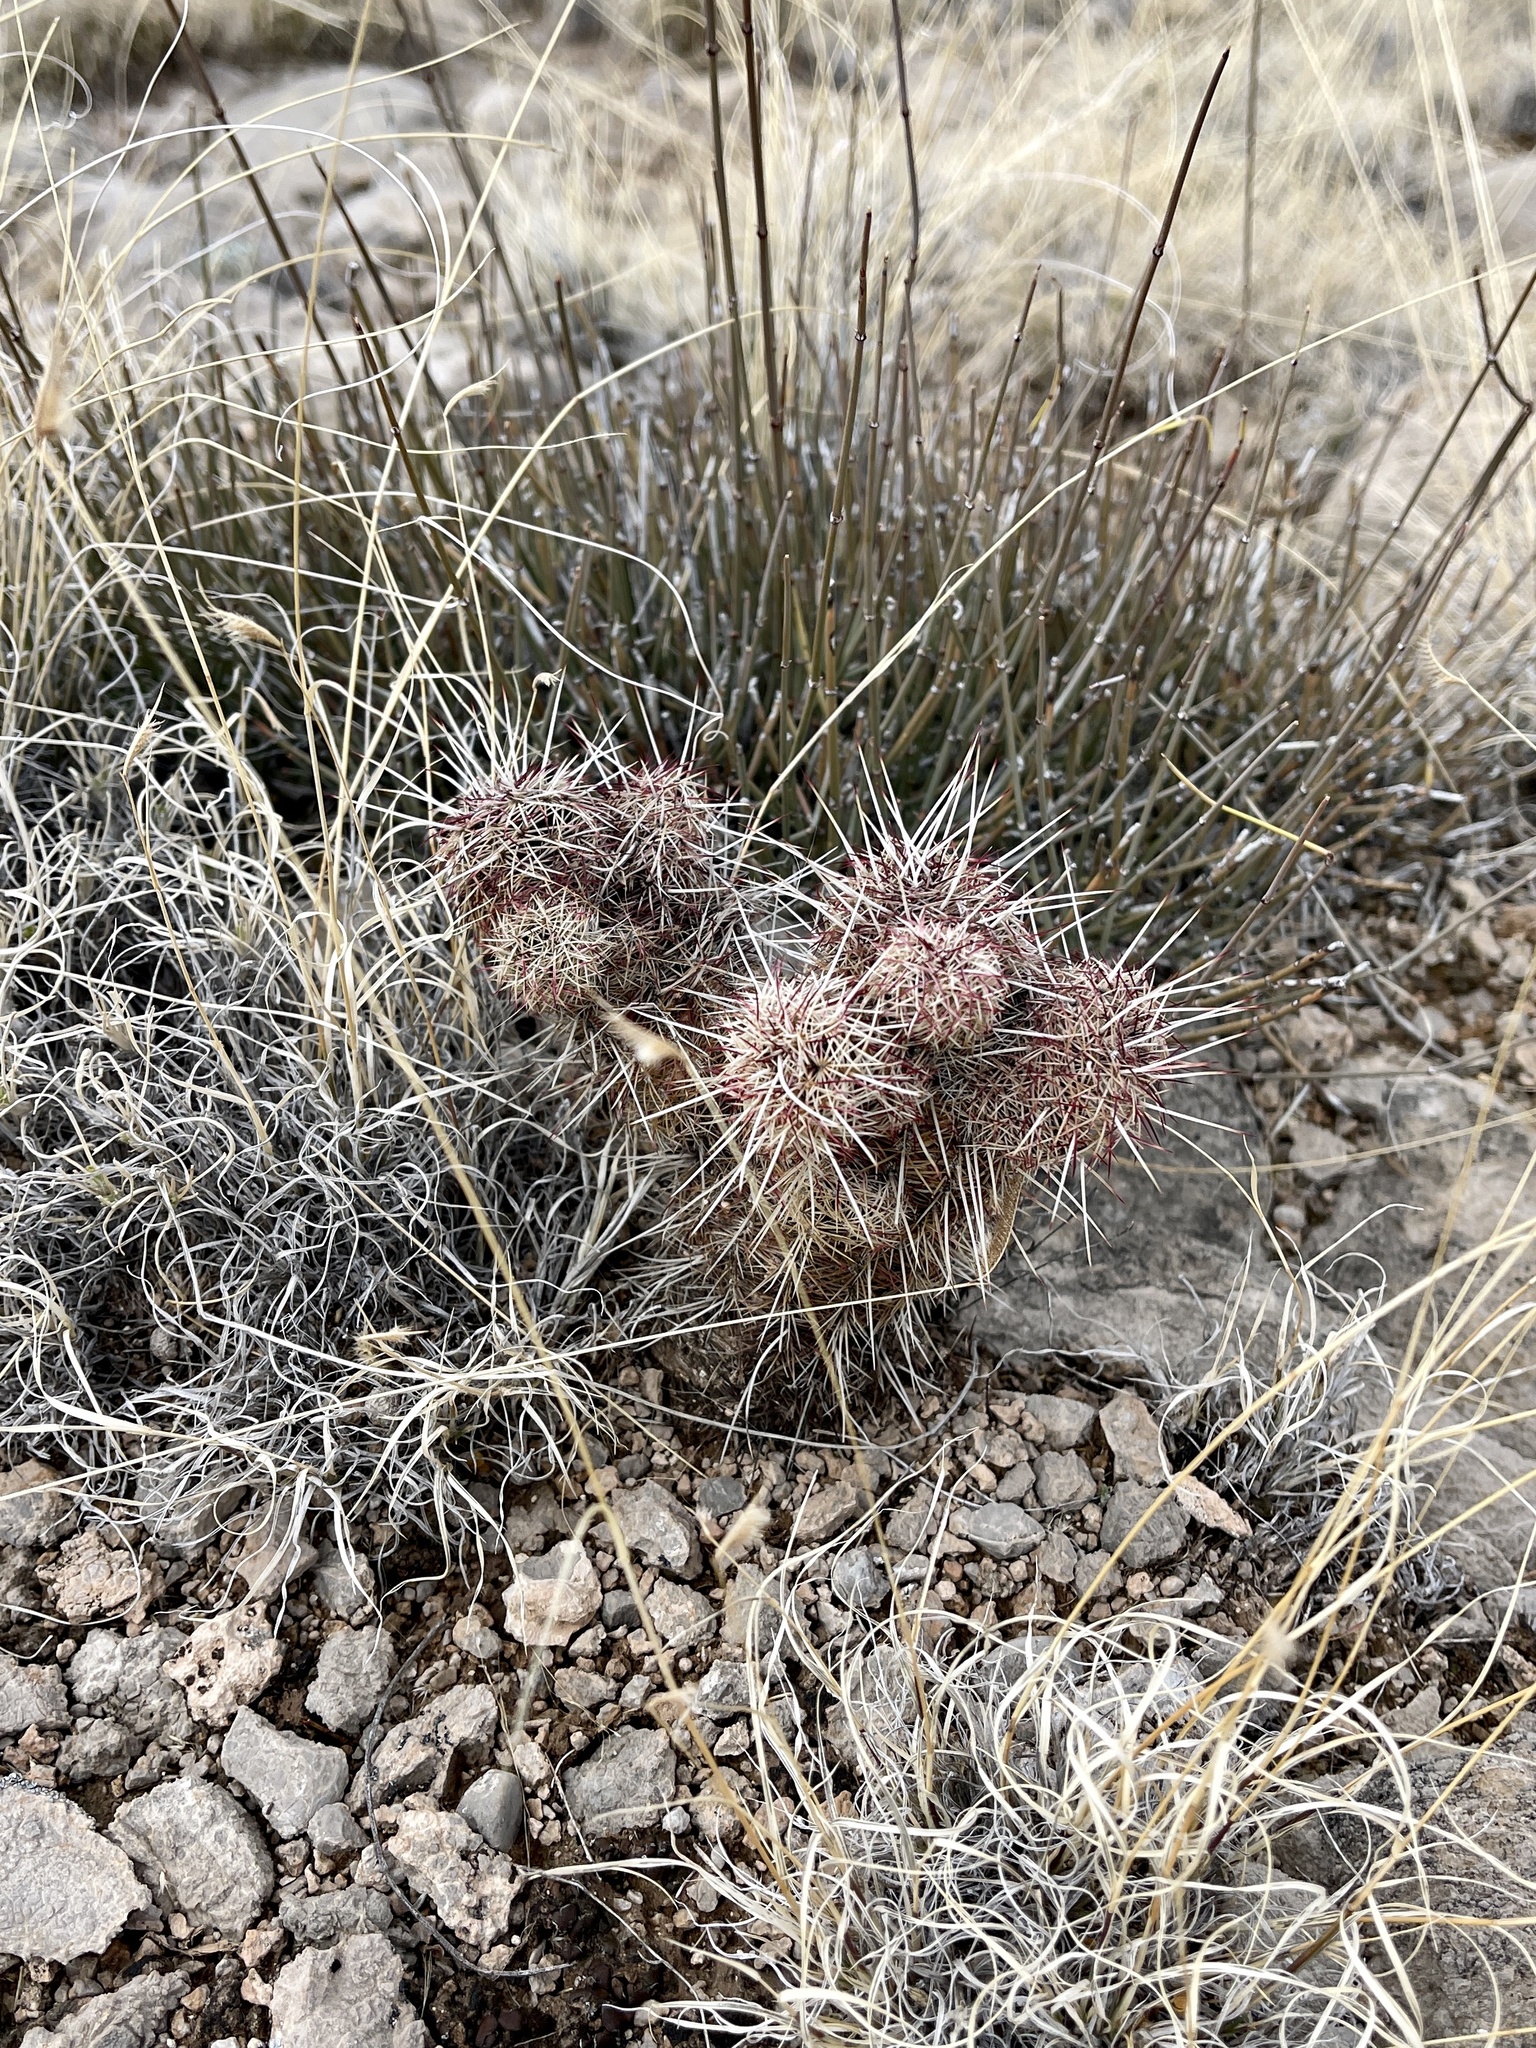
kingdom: Plantae
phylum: Tracheophyta
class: Magnoliopsida
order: Caryophyllales
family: Cactaceae
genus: Echinocereus
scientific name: Echinocereus viridiflorus
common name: Nylon hedgehog cactus
